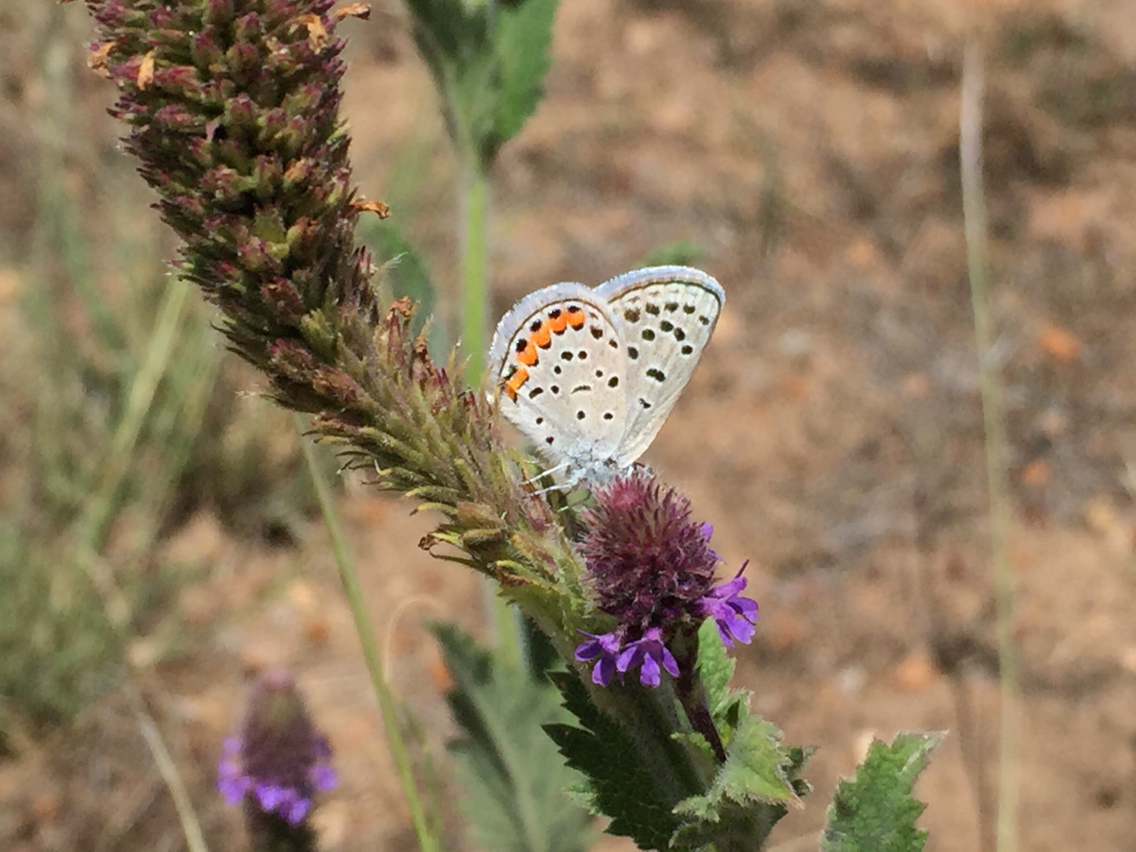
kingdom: Animalia
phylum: Arthropoda
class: Insecta
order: Lepidoptera
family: Lycaenidae
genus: Icaricia
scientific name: Icaricia lupini
